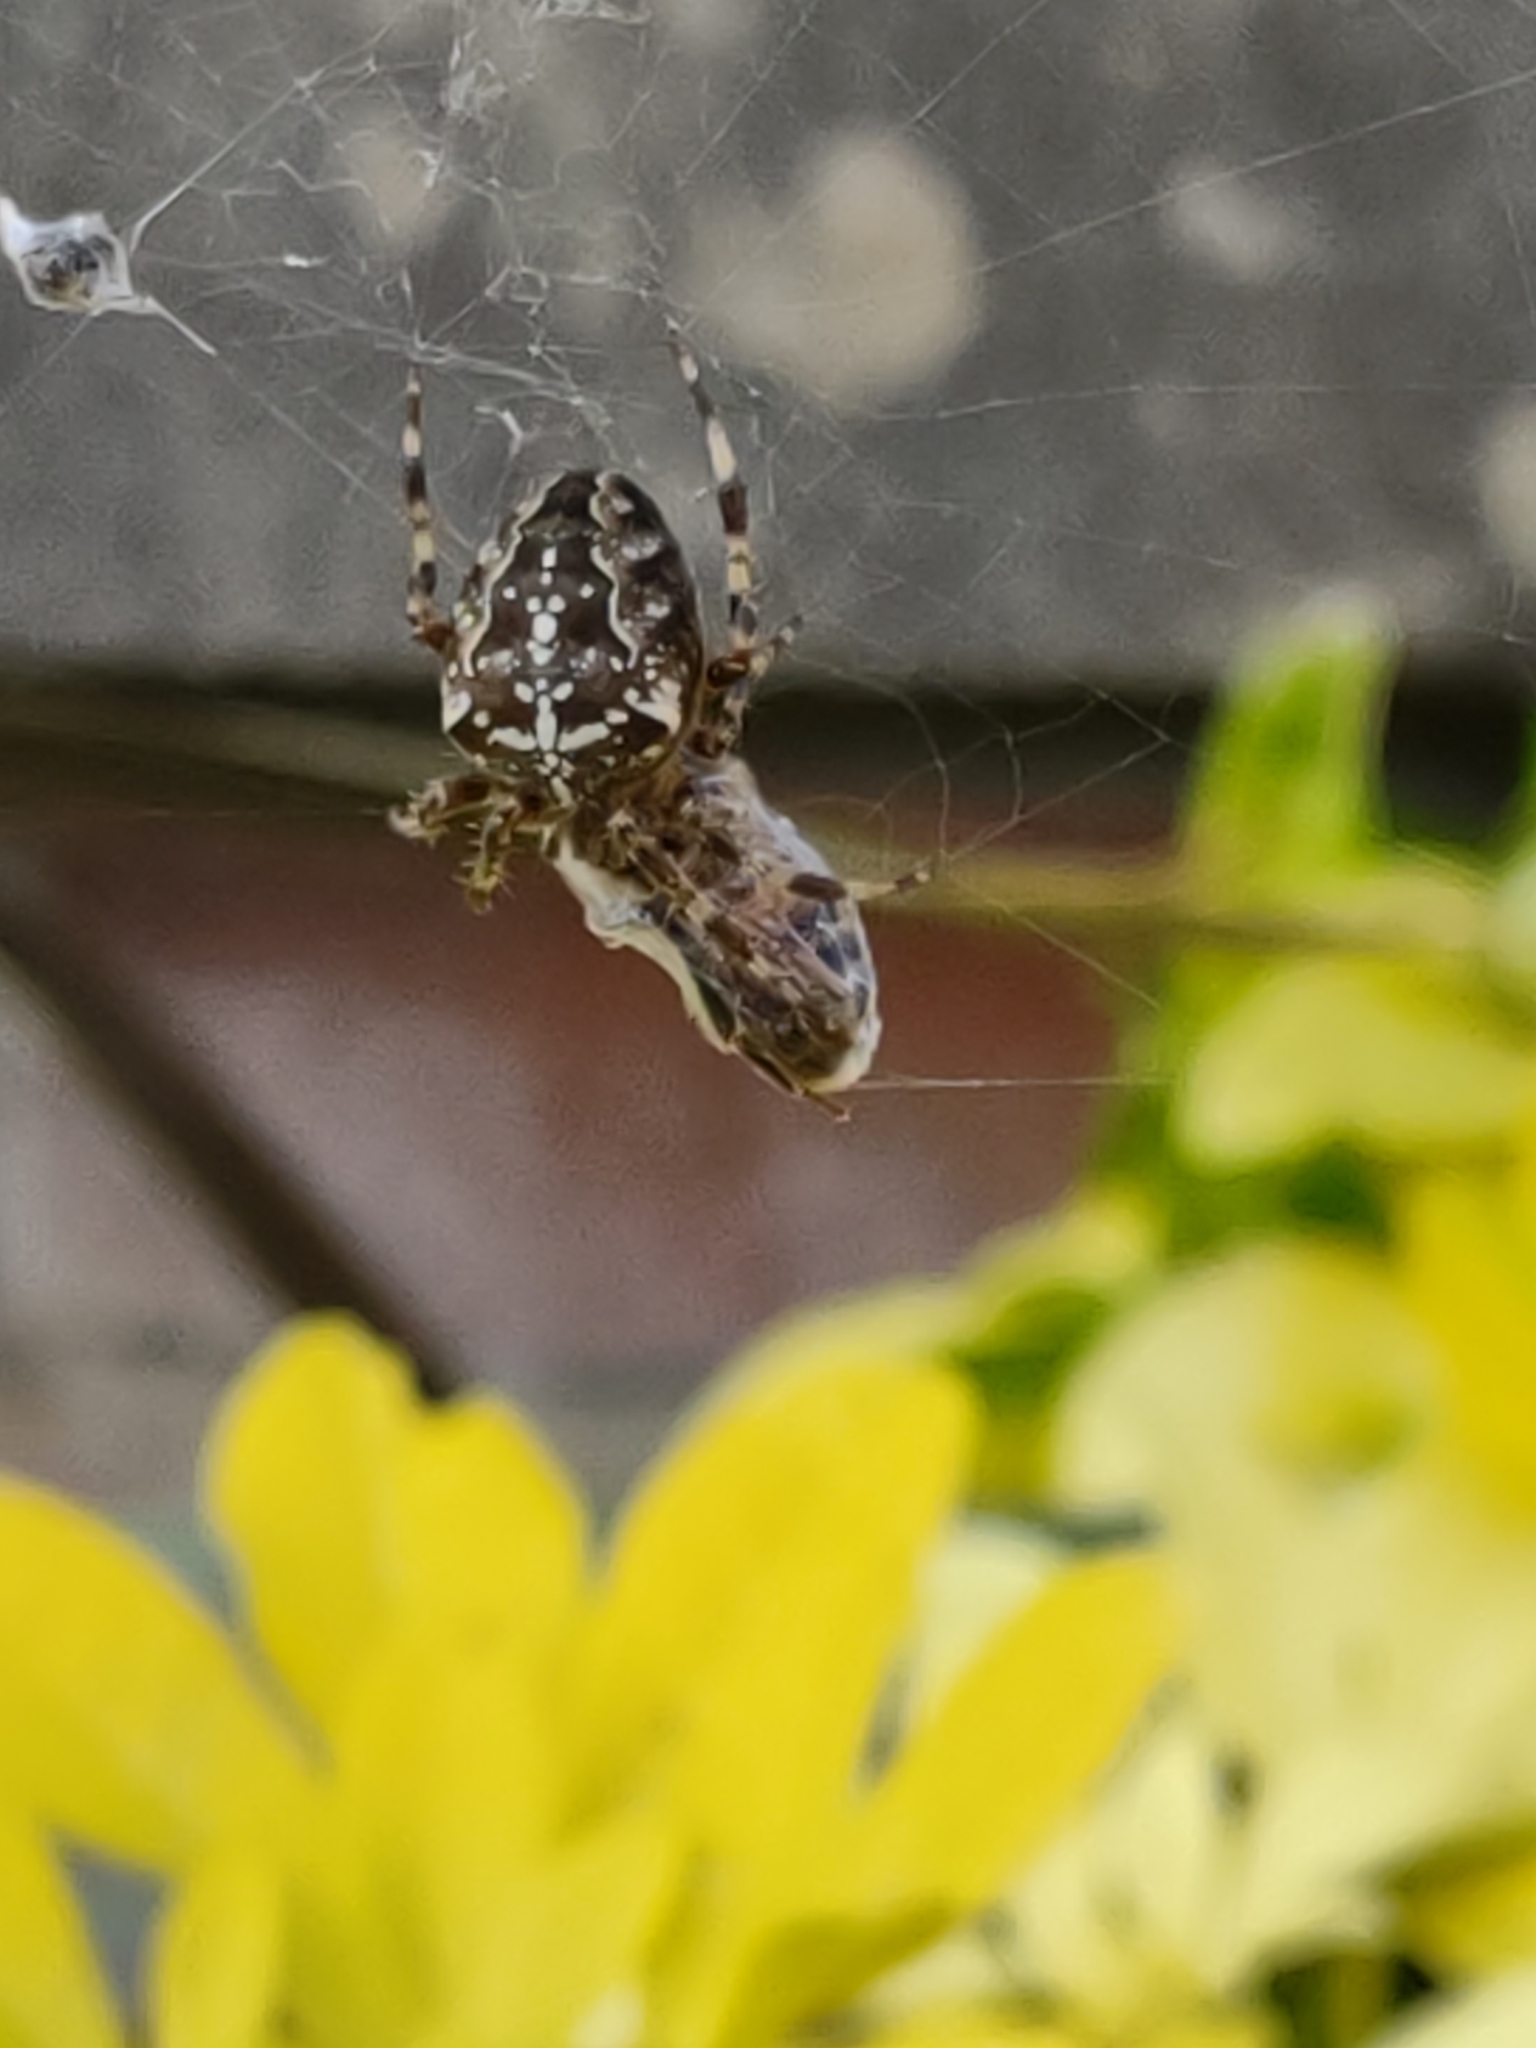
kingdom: Animalia
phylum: Arthropoda
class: Arachnida
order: Araneae
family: Araneidae
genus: Araneus
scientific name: Araneus diadematus
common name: Cross orbweaver
